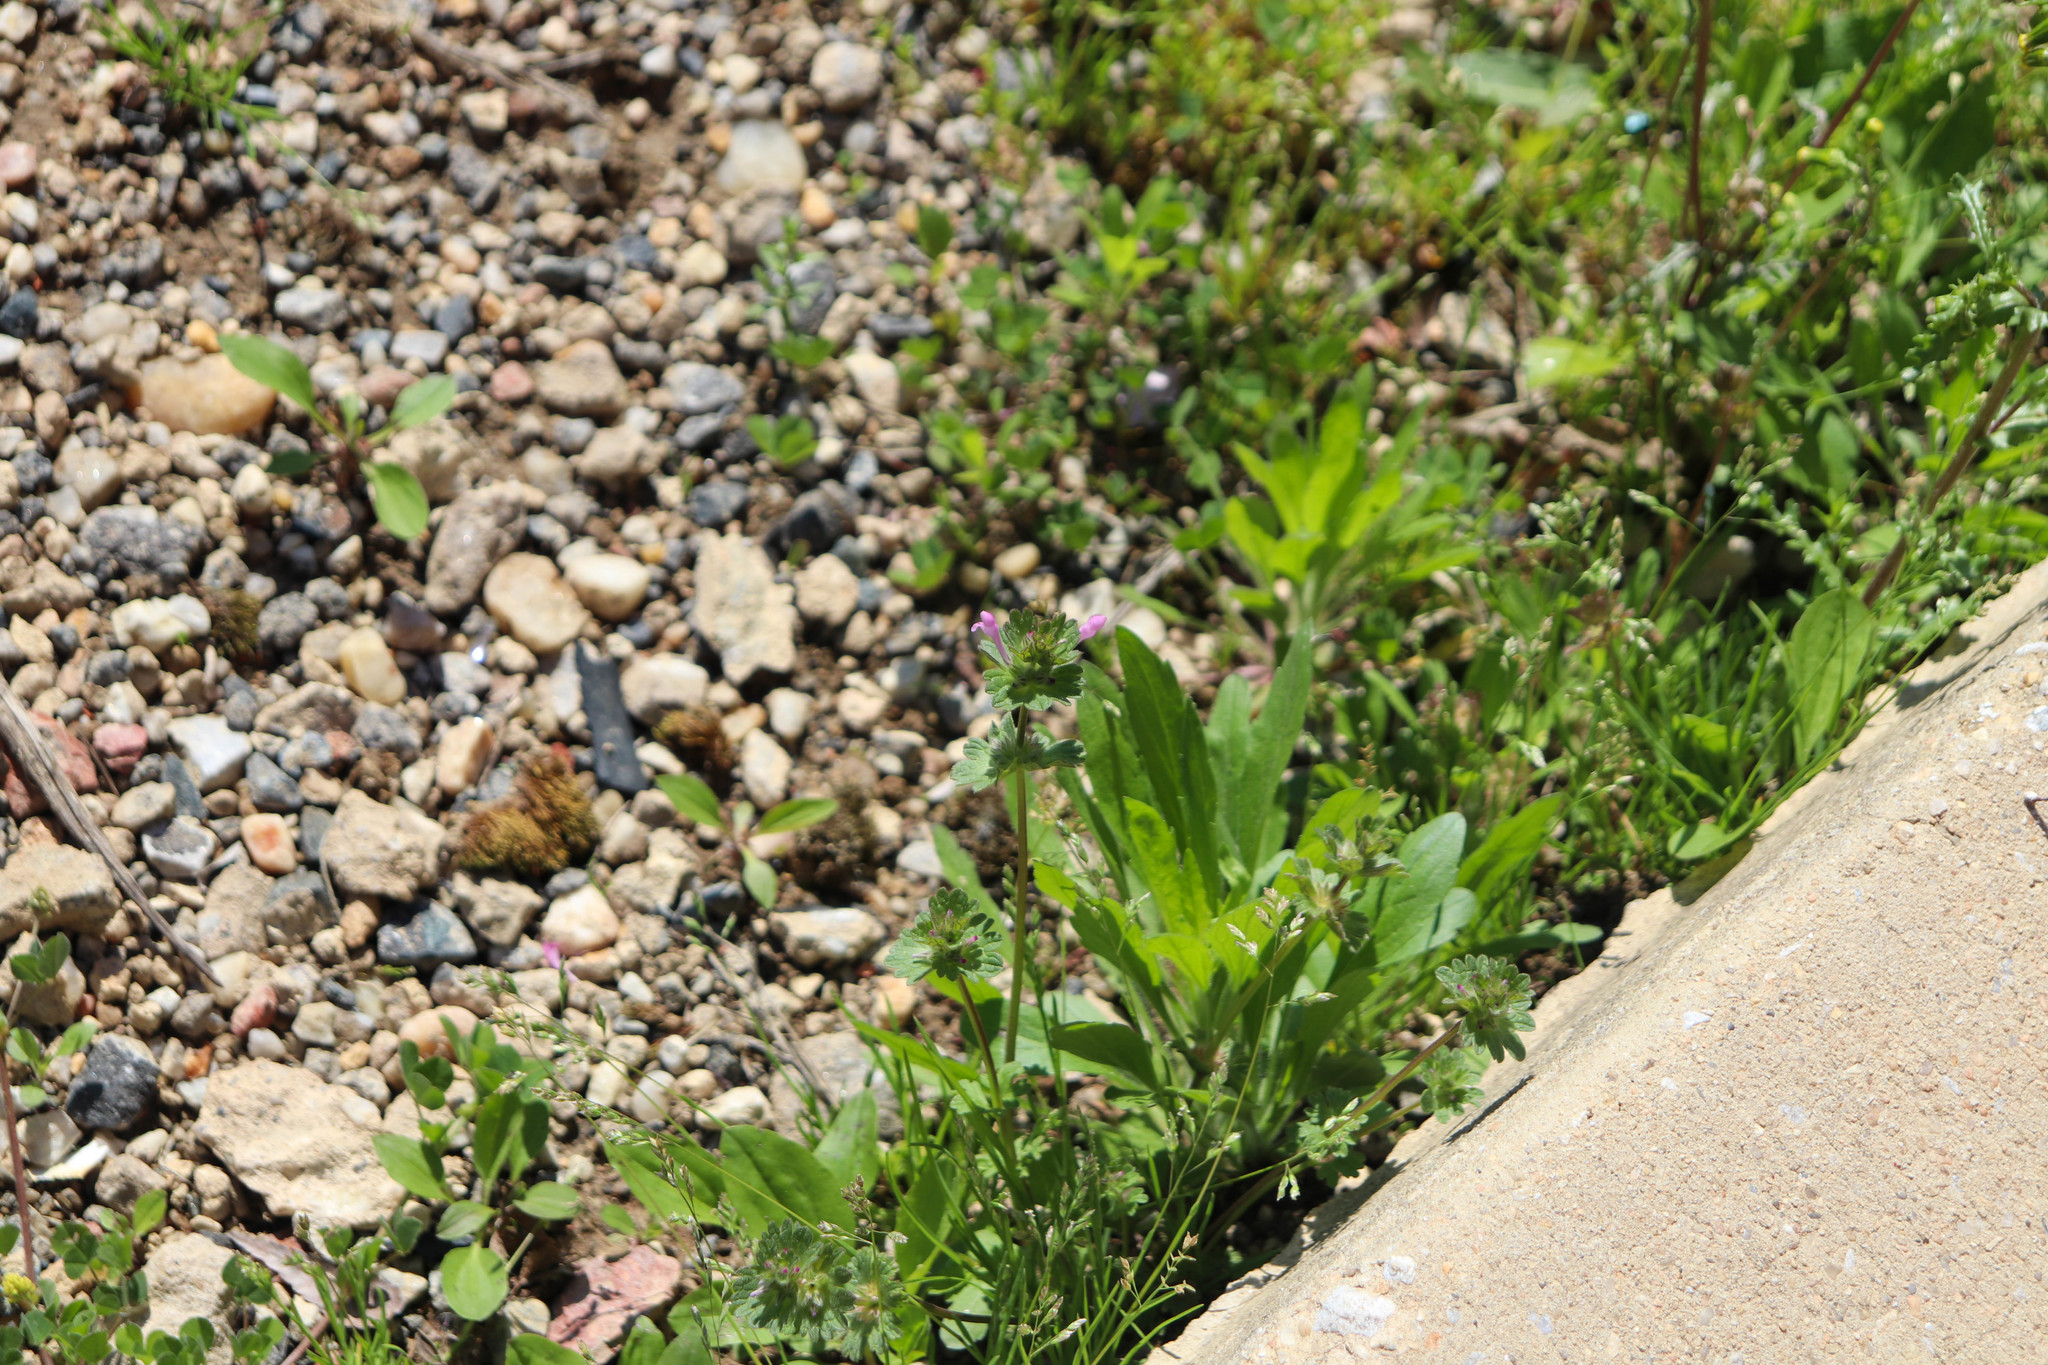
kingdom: Plantae
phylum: Tracheophyta
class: Magnoliopsida
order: Lamiales
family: Lamiaceae
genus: Lamium
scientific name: Lamium amplexicaule
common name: Henbit dead-nettle
